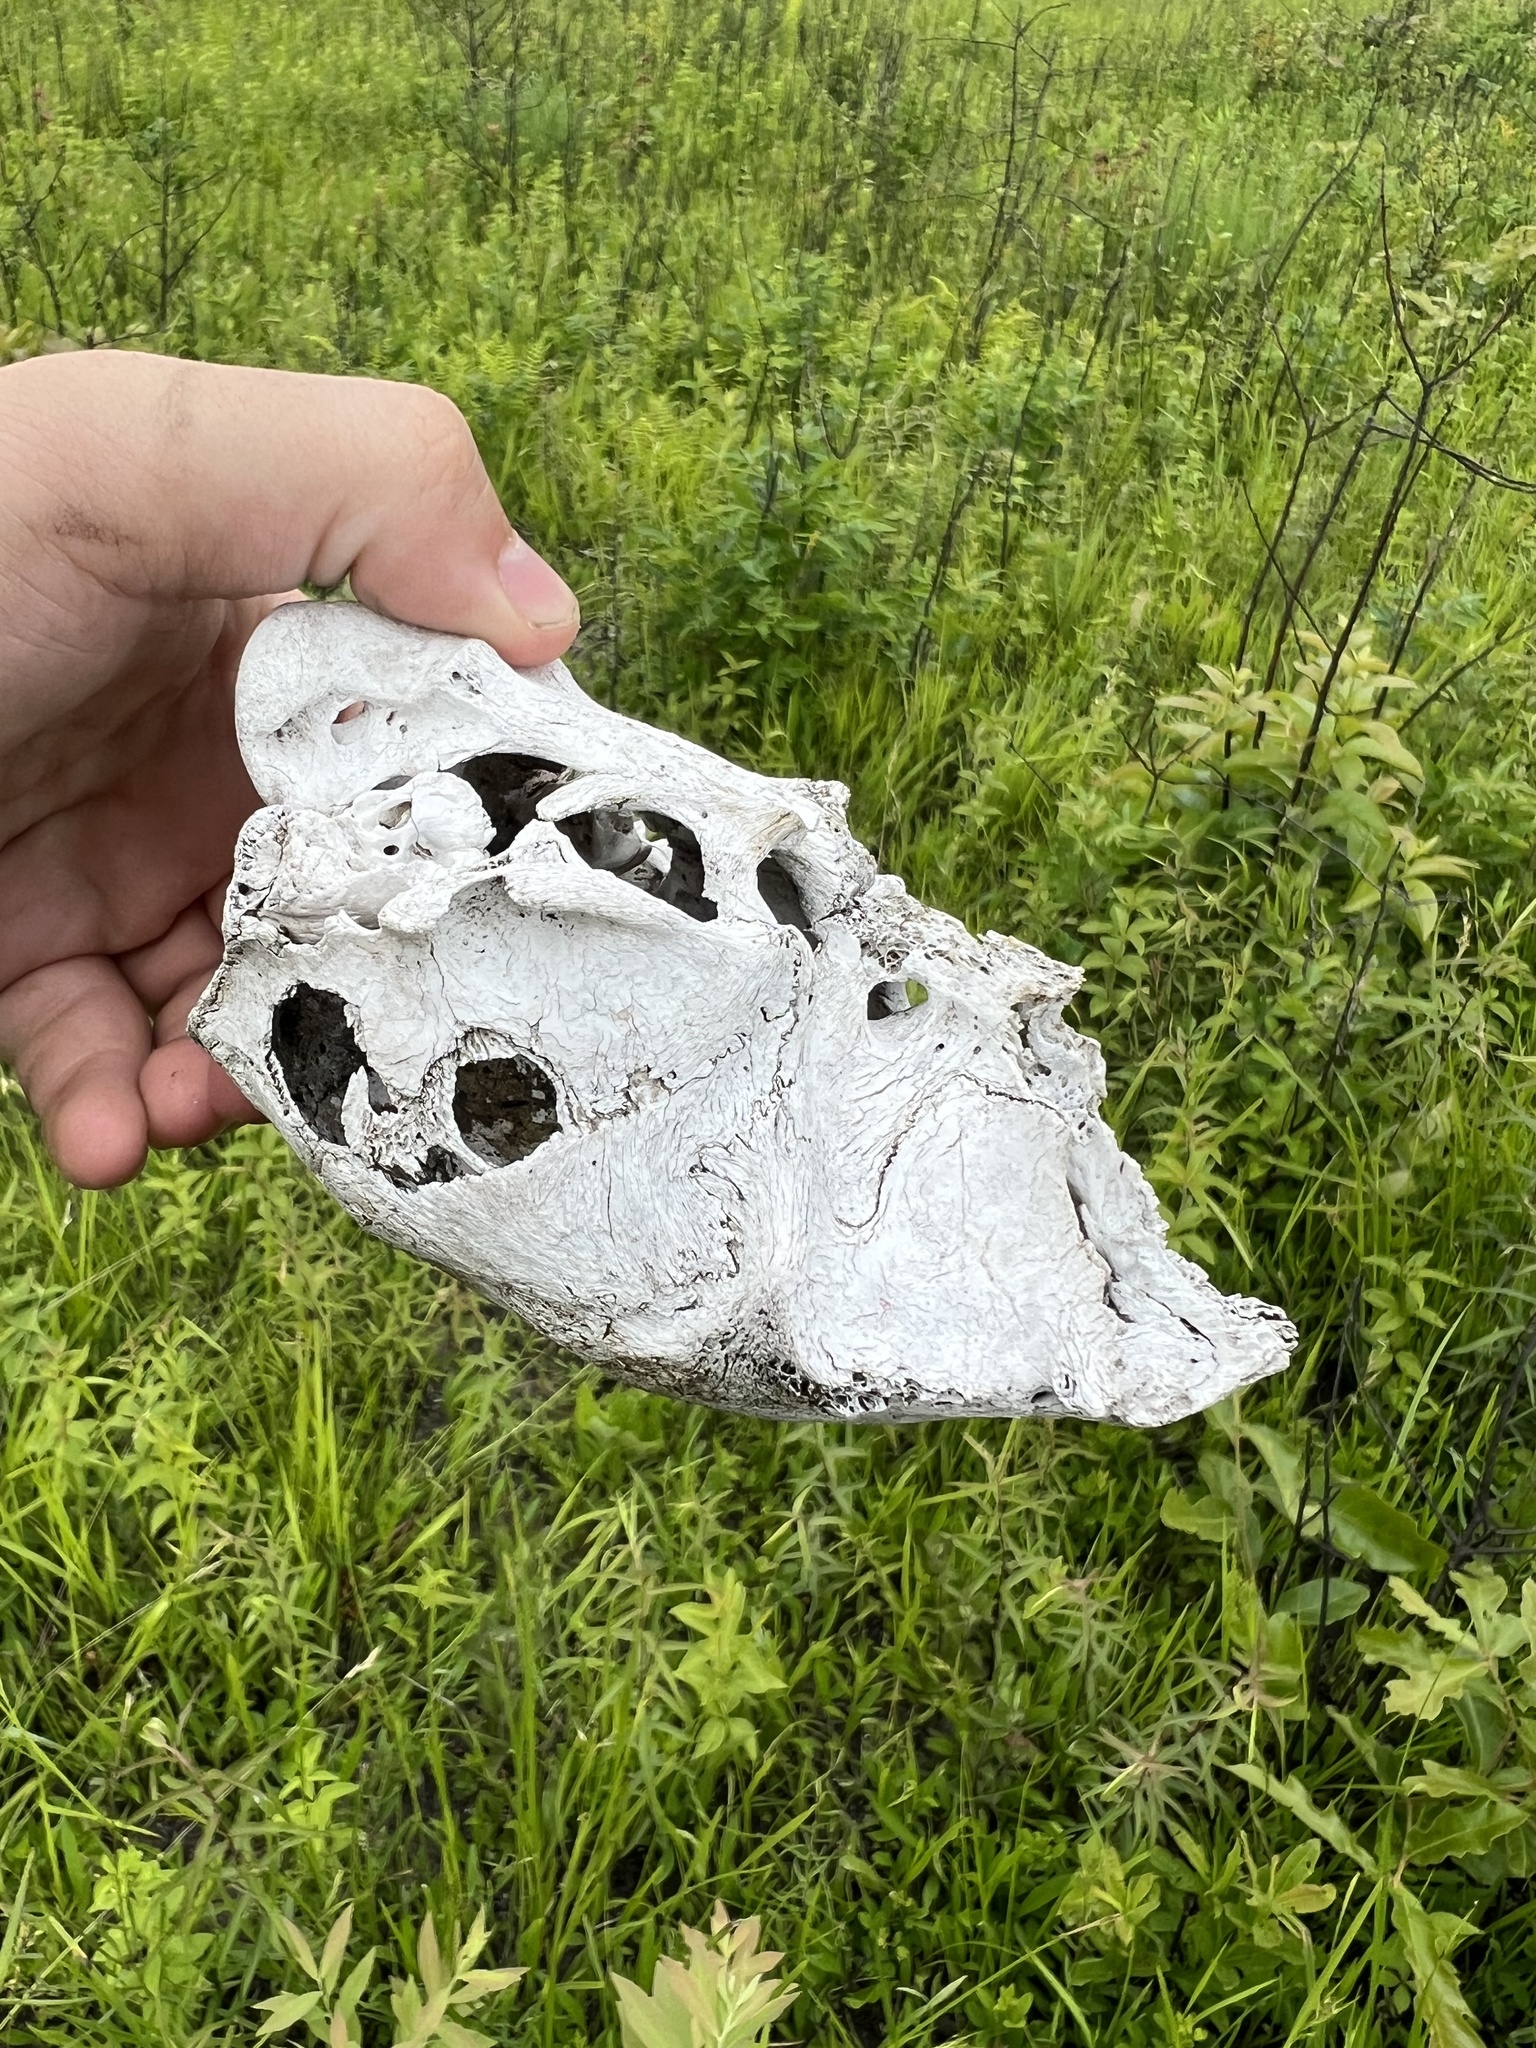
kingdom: Animalia
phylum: Chordata
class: Mammalia
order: Artiodactyla
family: Cervidae
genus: Odocoileus
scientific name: Odocoileus virginianus
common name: White-tailed deer
